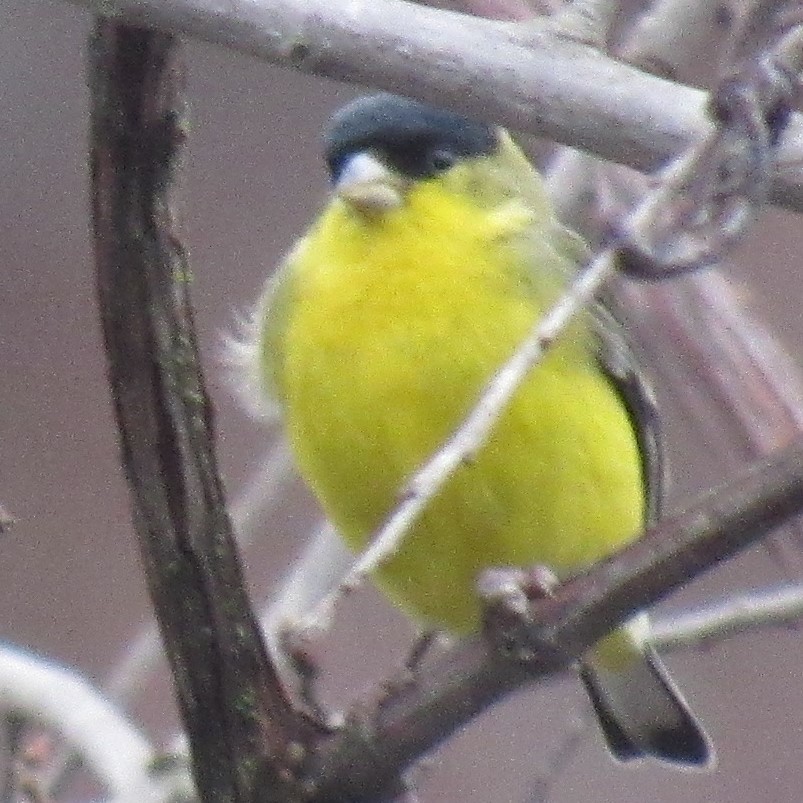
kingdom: Animalia
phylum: Chordata
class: Aves
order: Passeriformes
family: Fringillidae
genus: Spinus
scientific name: Spinus psaltria
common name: Lesser goldfinch
